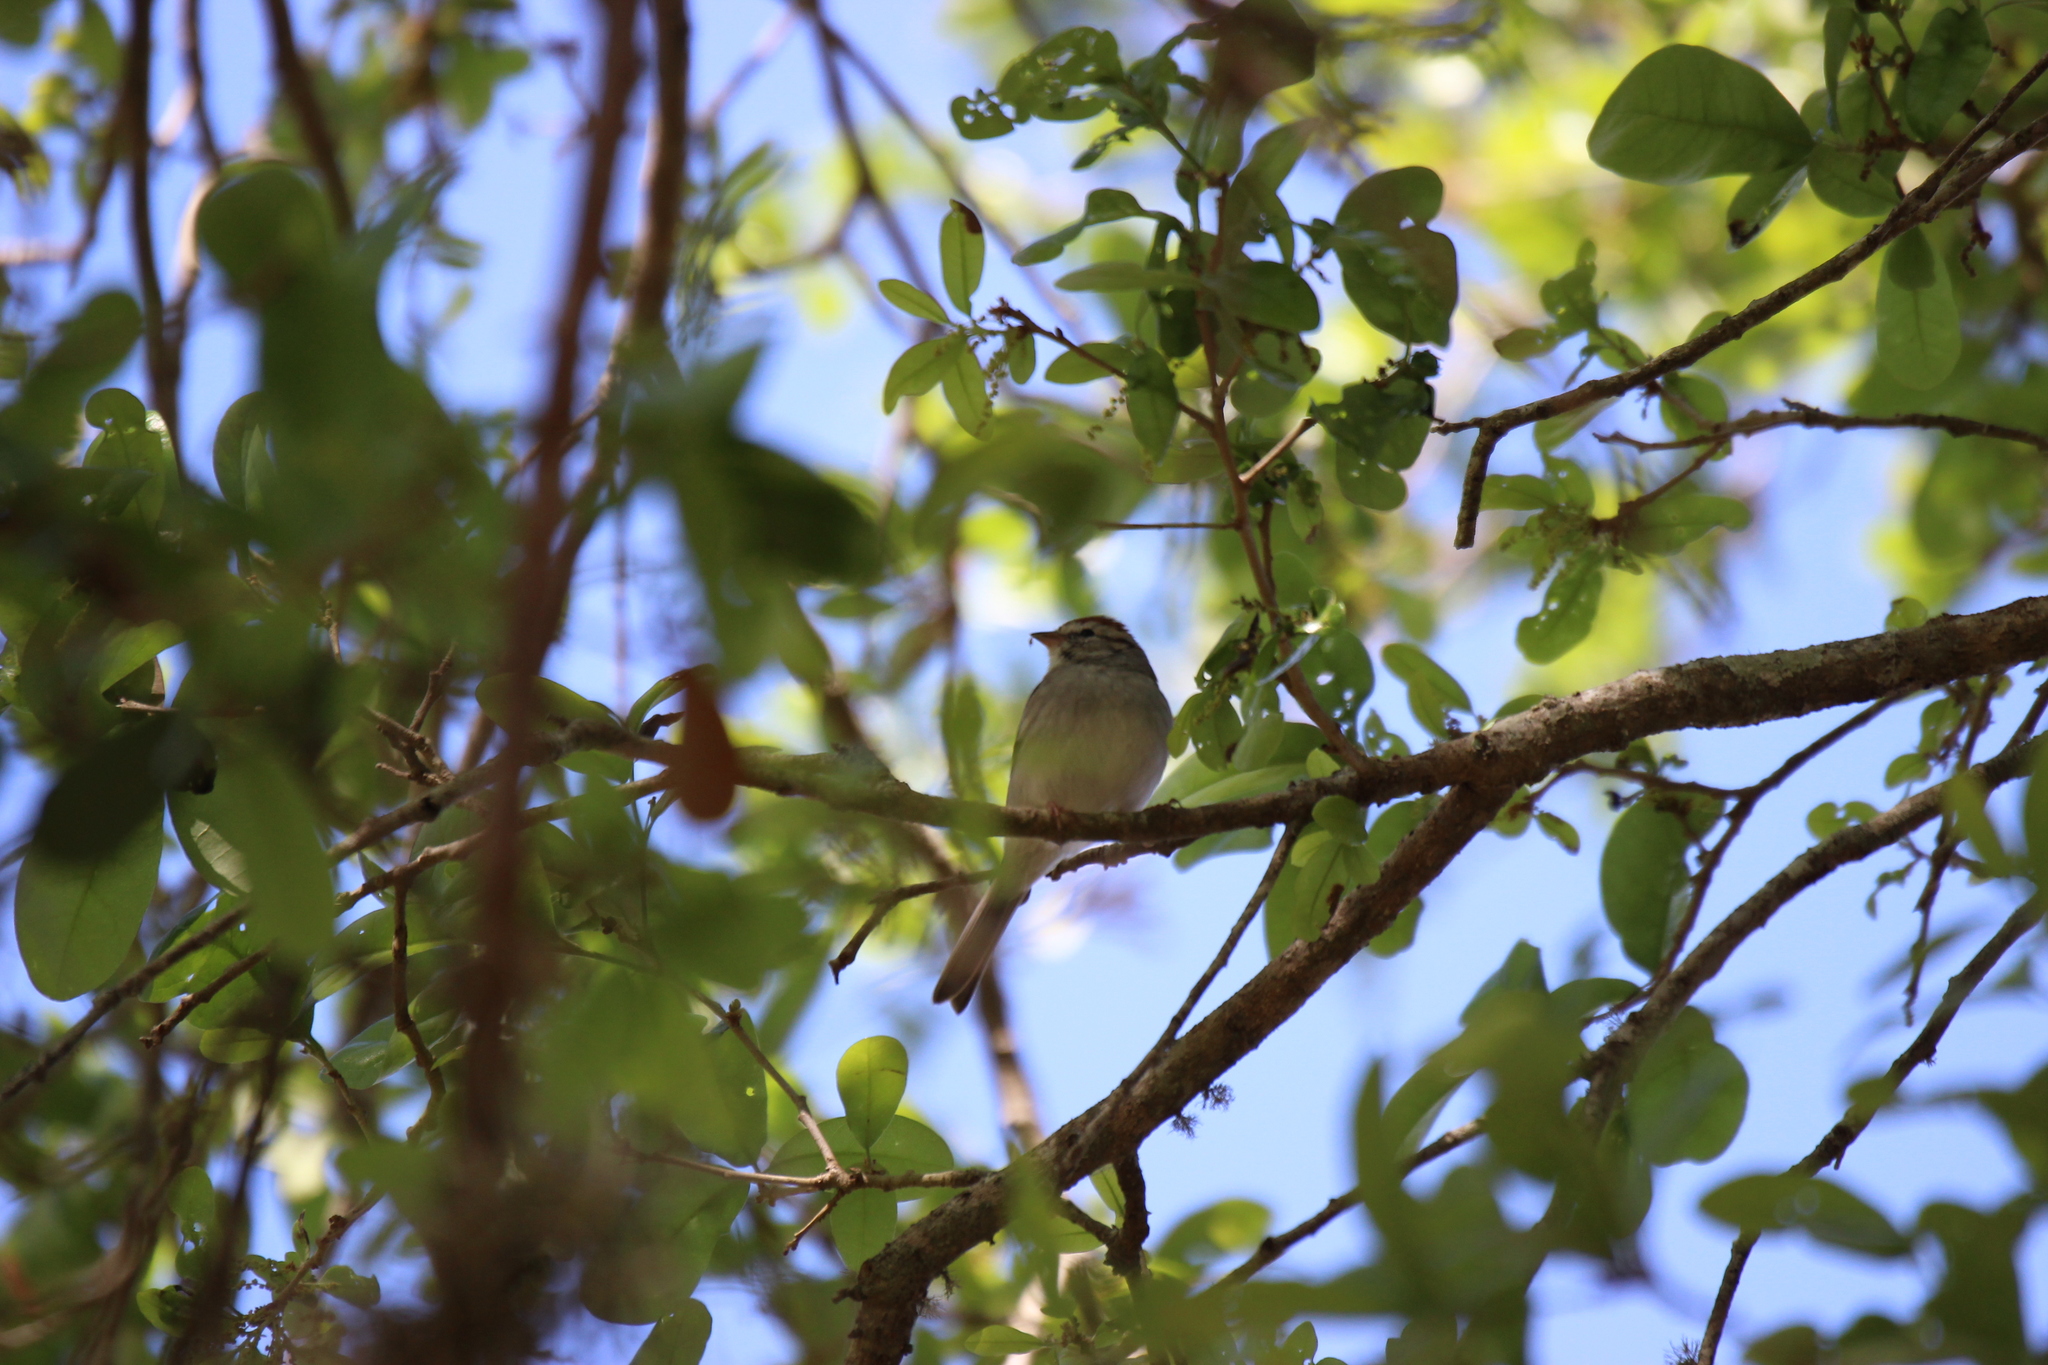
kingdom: Animalia
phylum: Chordata
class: Aves
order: Passeriformes
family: Passerellidae
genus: Spizella
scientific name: Spizella passerina
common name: Chipping sparrow
